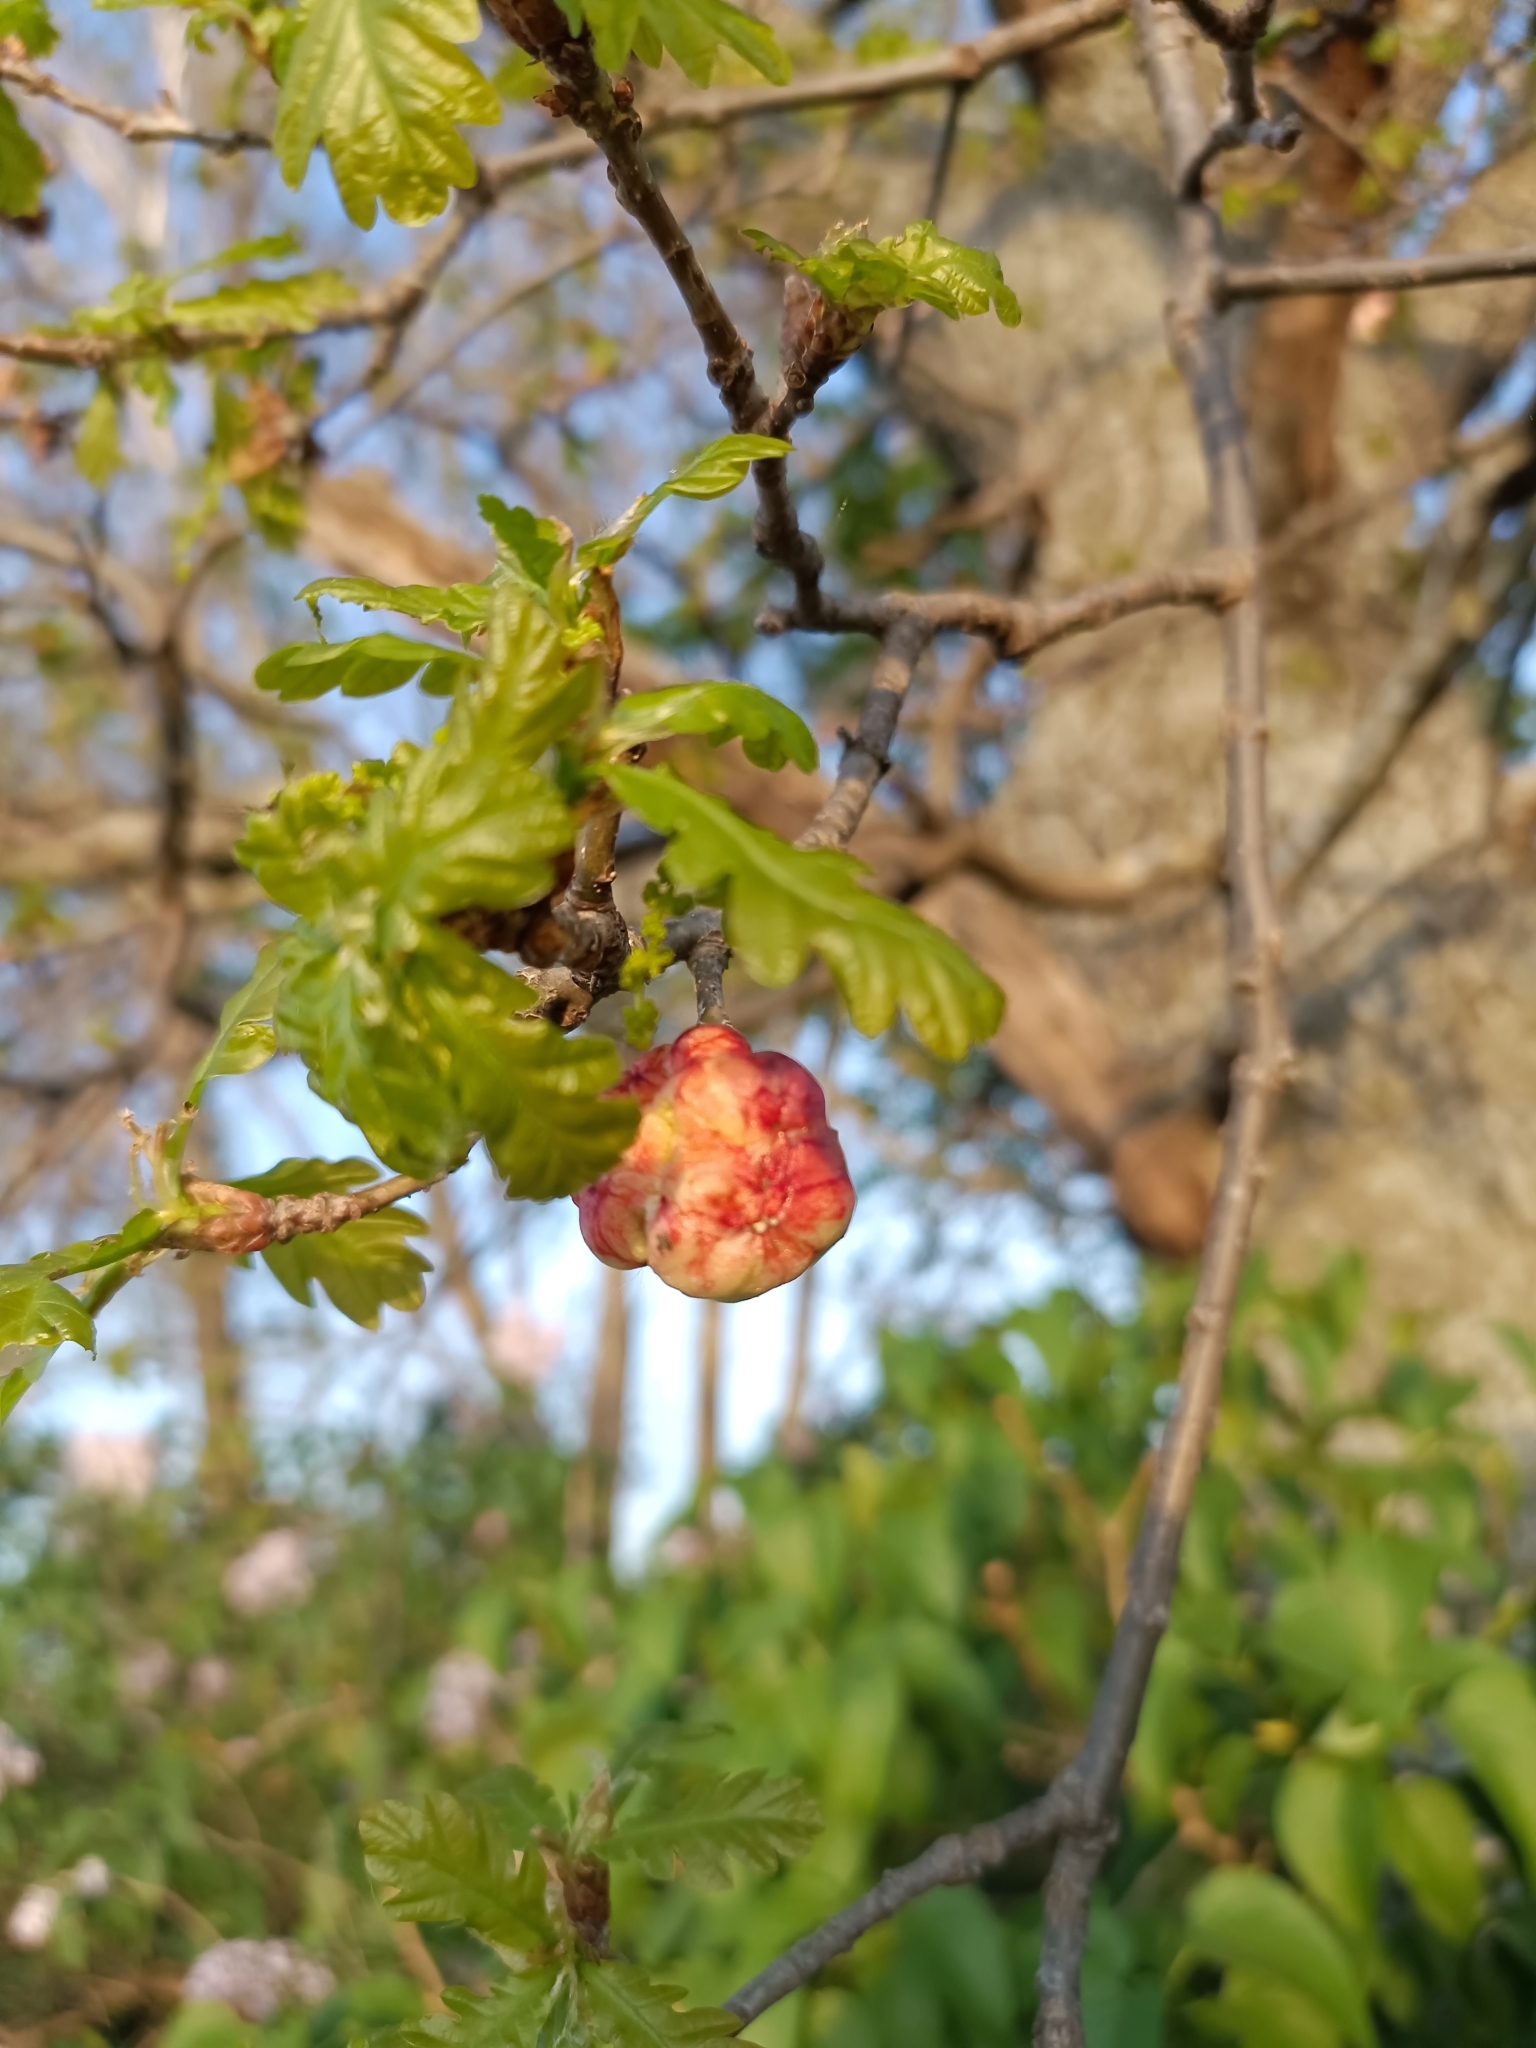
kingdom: Animalia
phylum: Arthropoda
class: Insecta
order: Hymenoptera
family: Cynipidae
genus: Biorhiza
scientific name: Biorhiza pallida
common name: Oak apple
